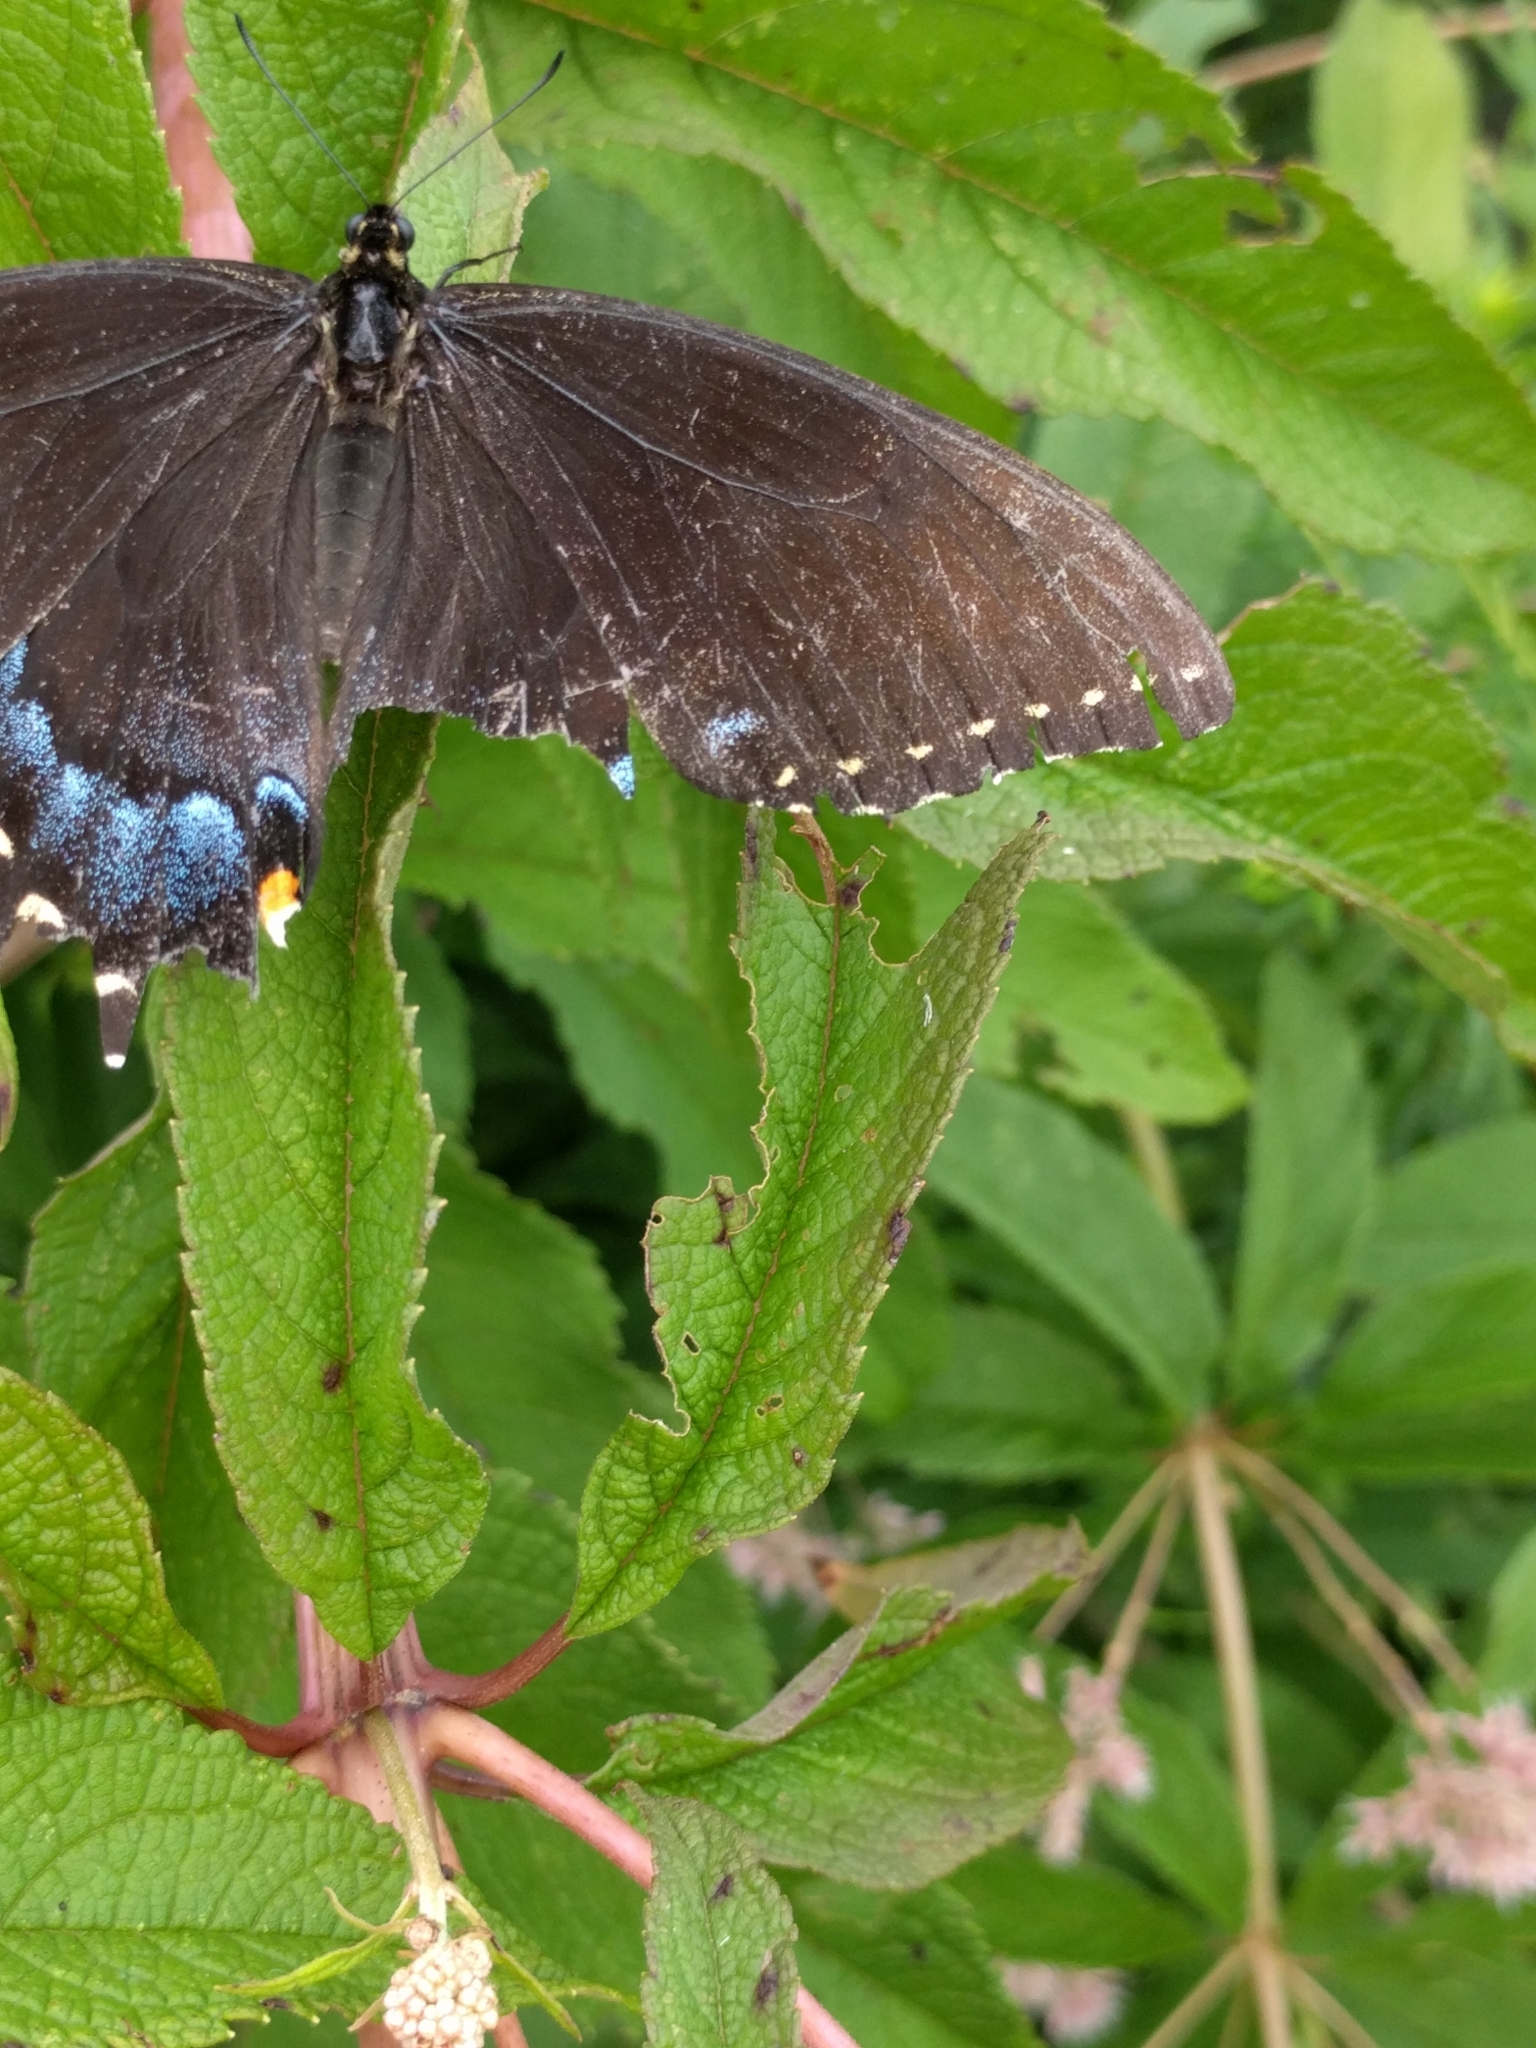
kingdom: Animalia
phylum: Arthropoda
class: Insecta
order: Lepidoptera
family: Papilionidae
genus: Papilio
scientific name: Papilio glaucus
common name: Tiger swallowtail
